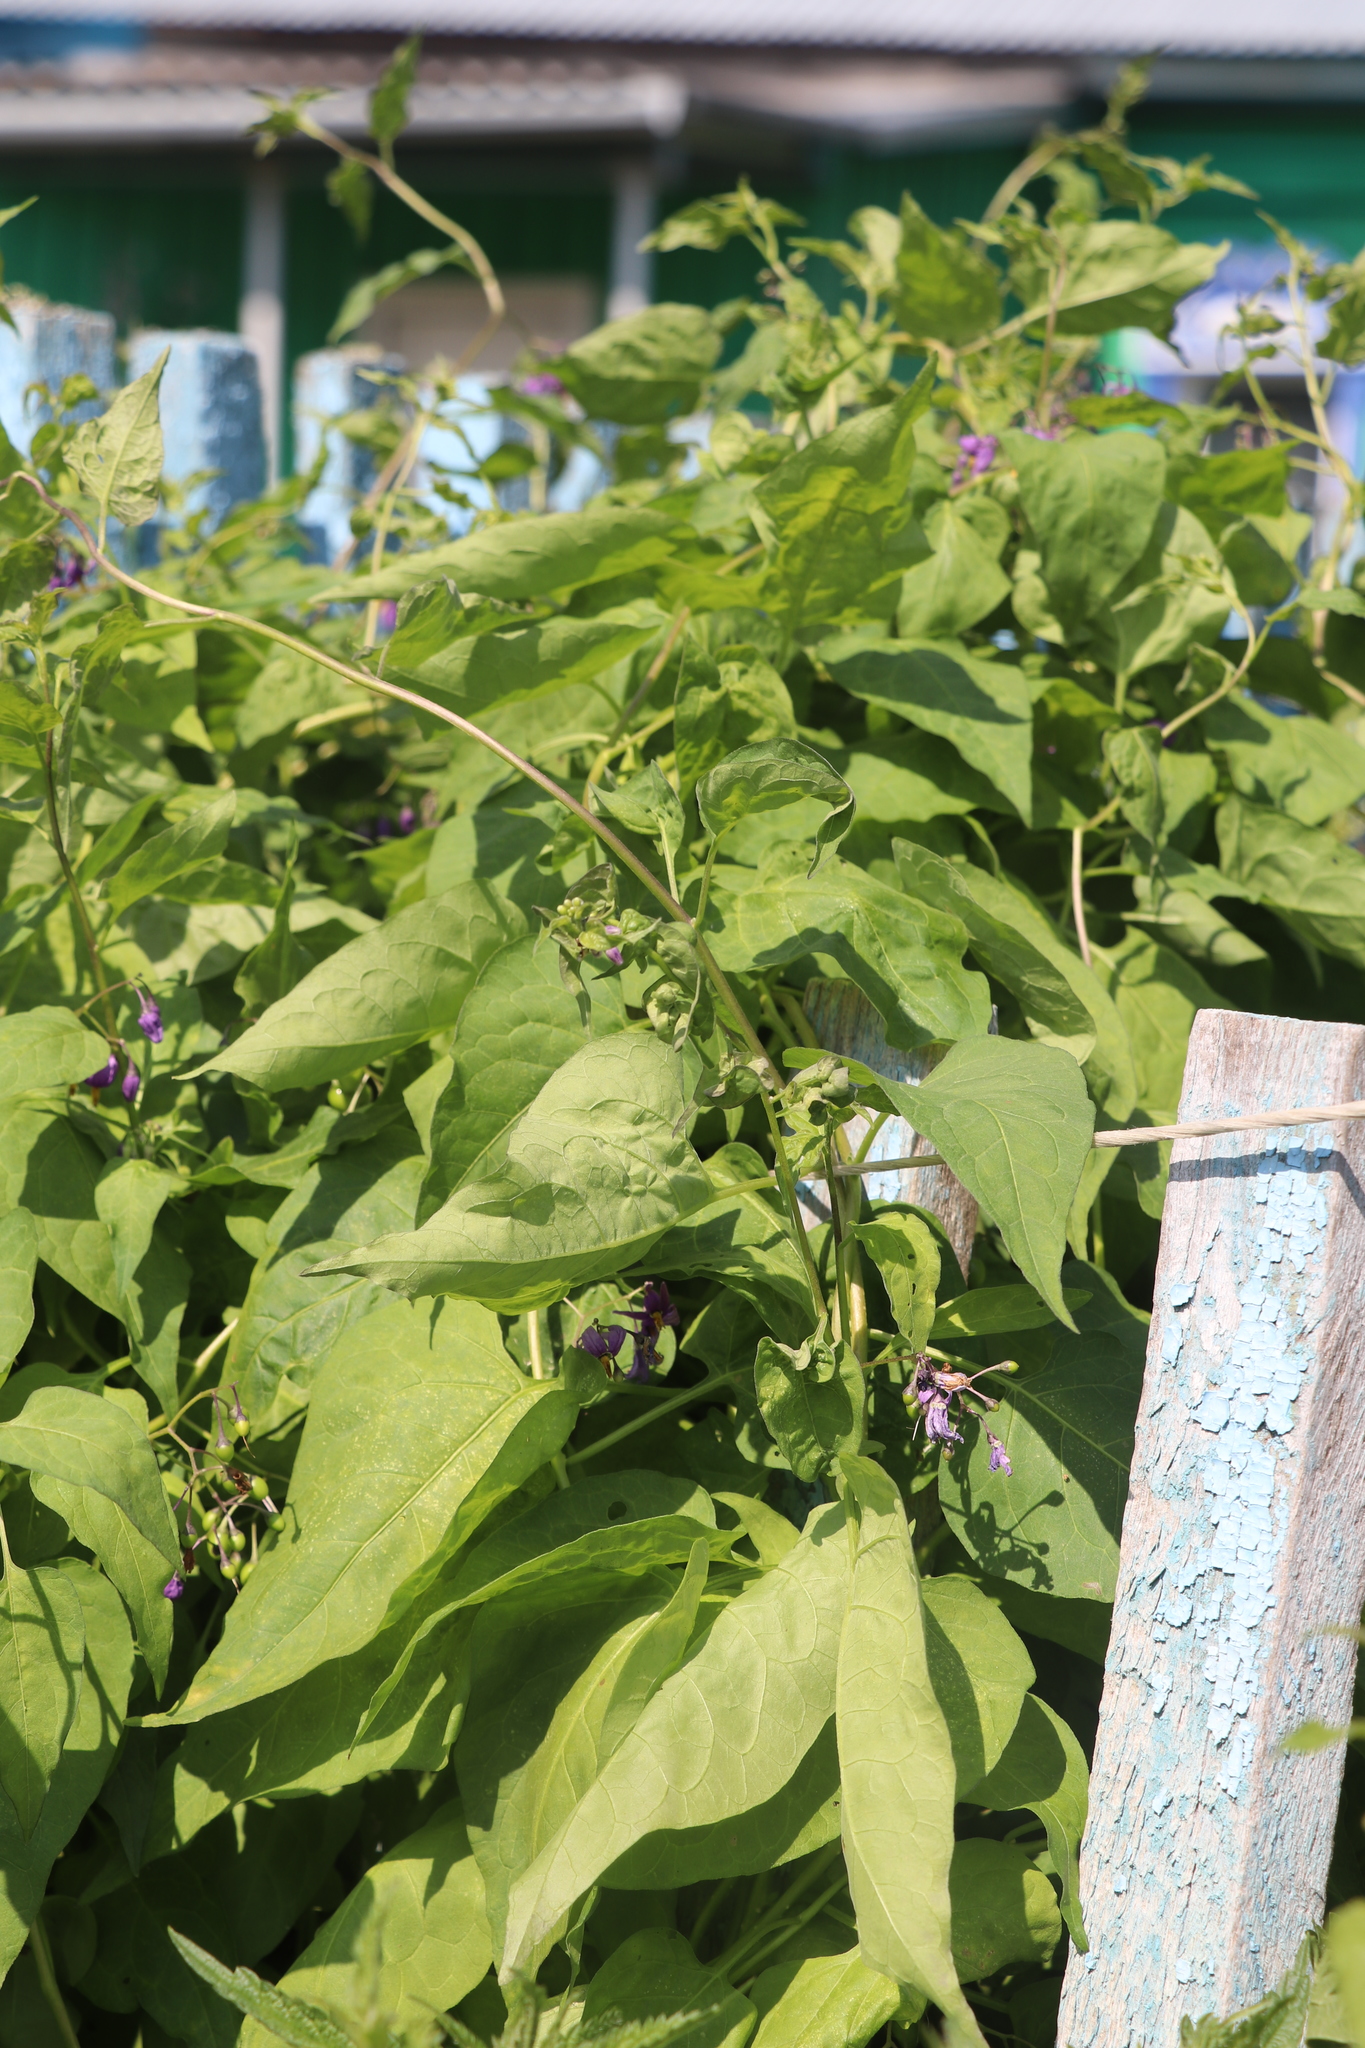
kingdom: Plantae
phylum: Tracheophyta
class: Magnoliopsida
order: Solanales
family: Solanaceae
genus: Solanum
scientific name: Solanum dulcamara
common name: Climbing nightshade
